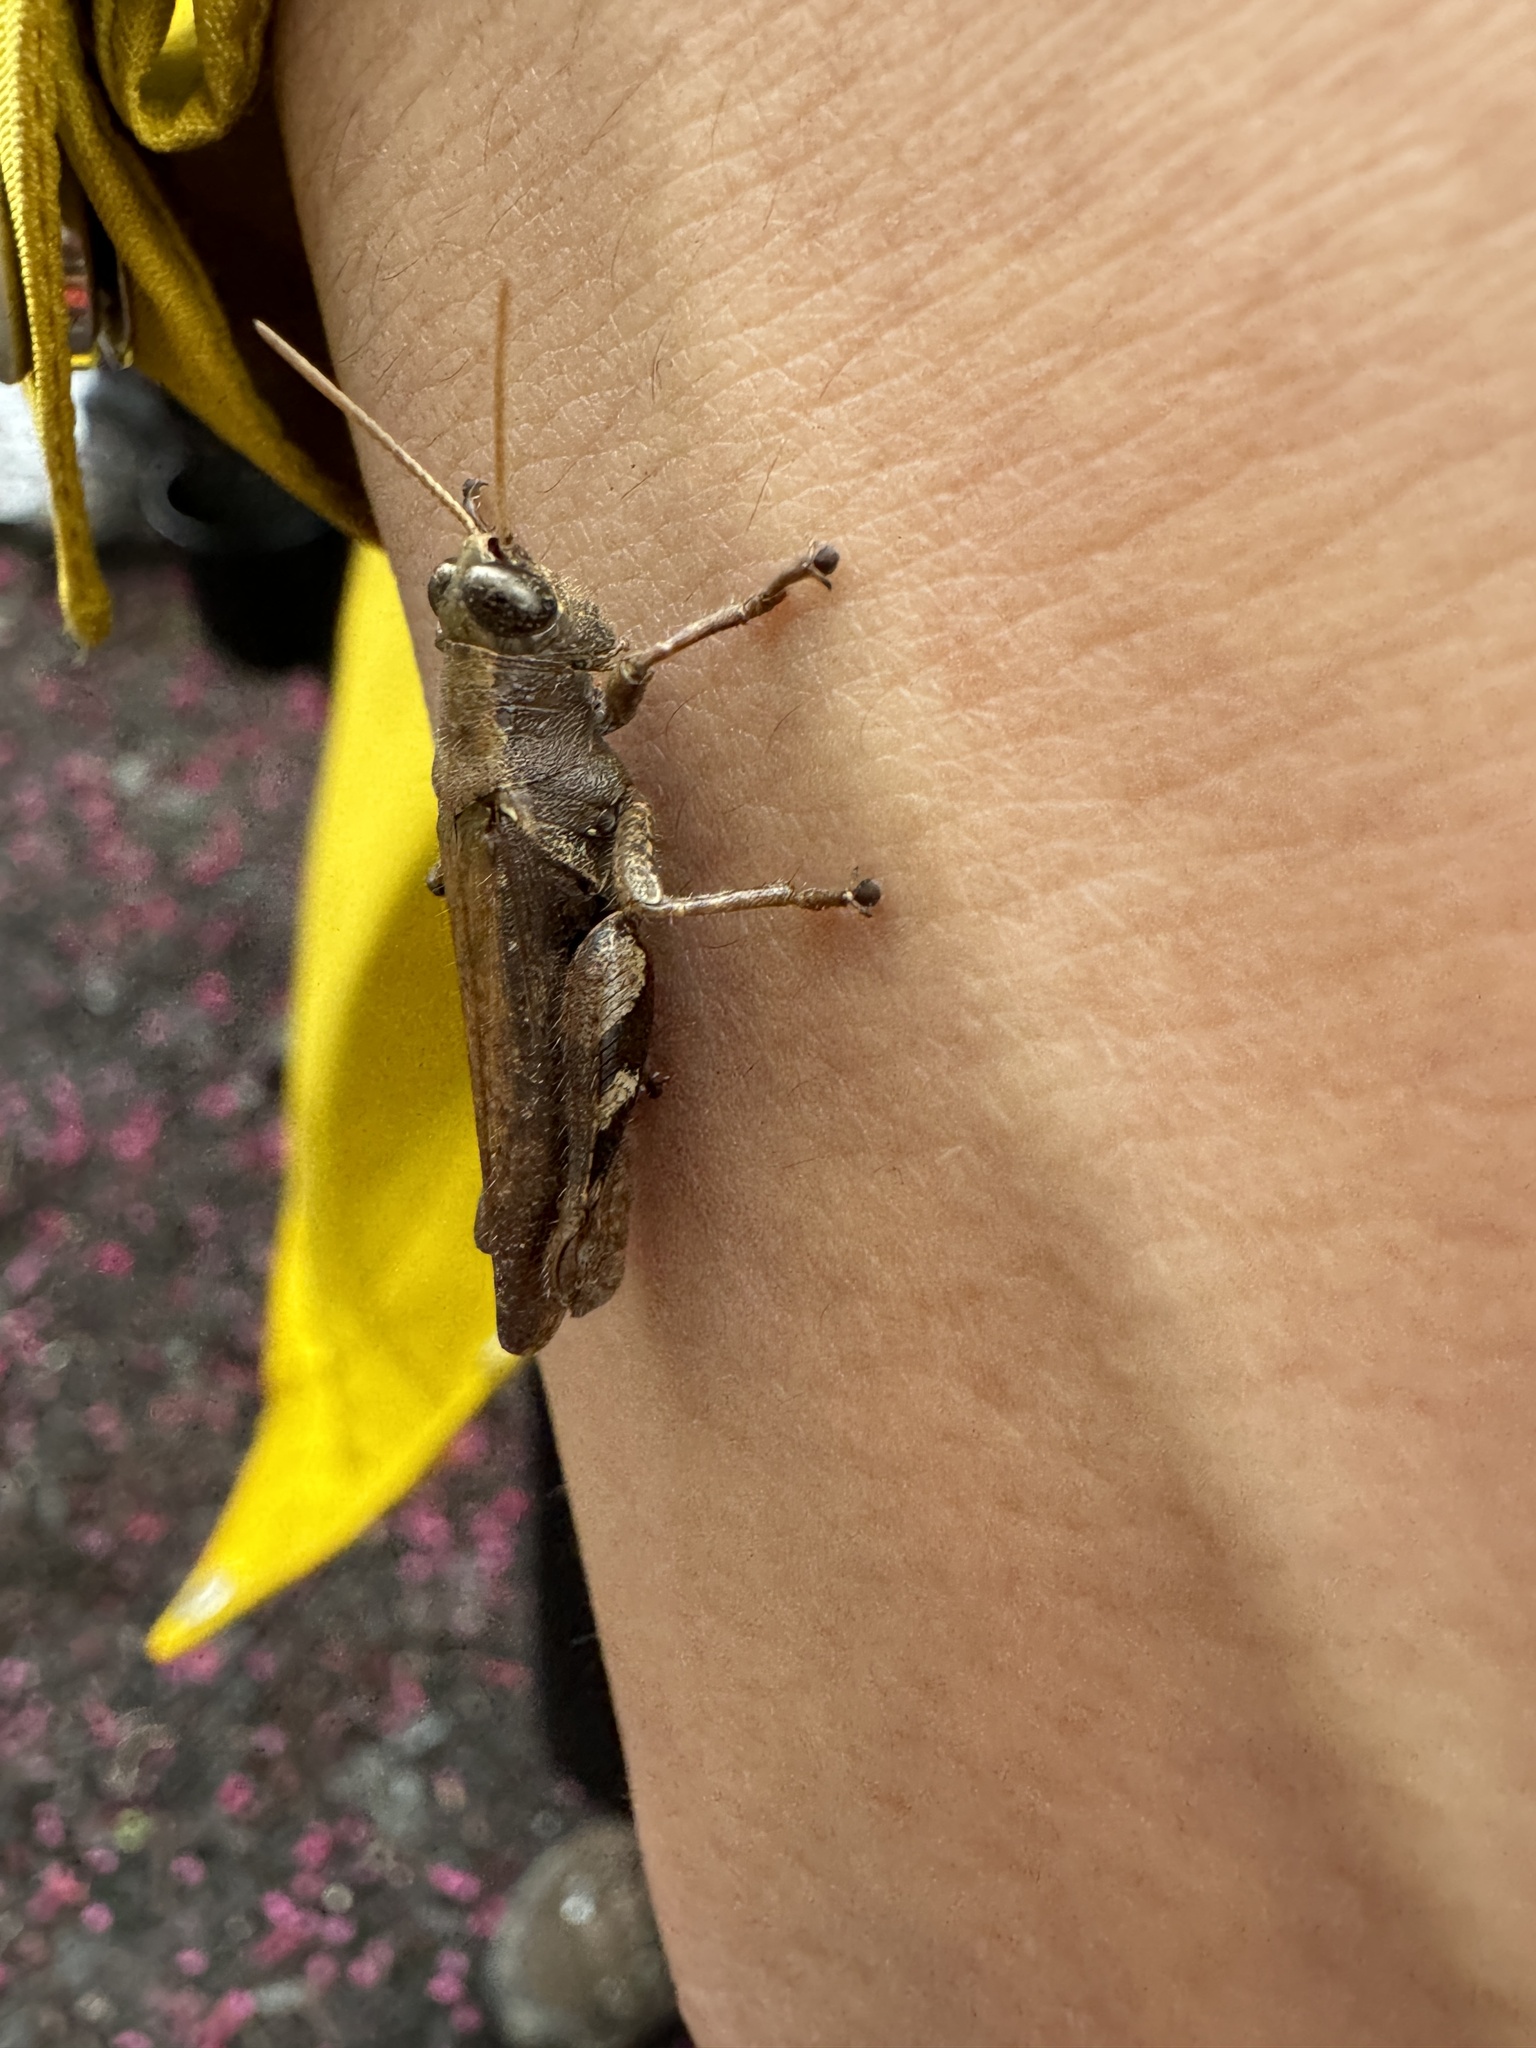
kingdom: Animalia
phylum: Arthropoda
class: Insecta
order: Orthoptera
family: Acrididae
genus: Xenocatantops
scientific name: Xenocatantops brachycerus
